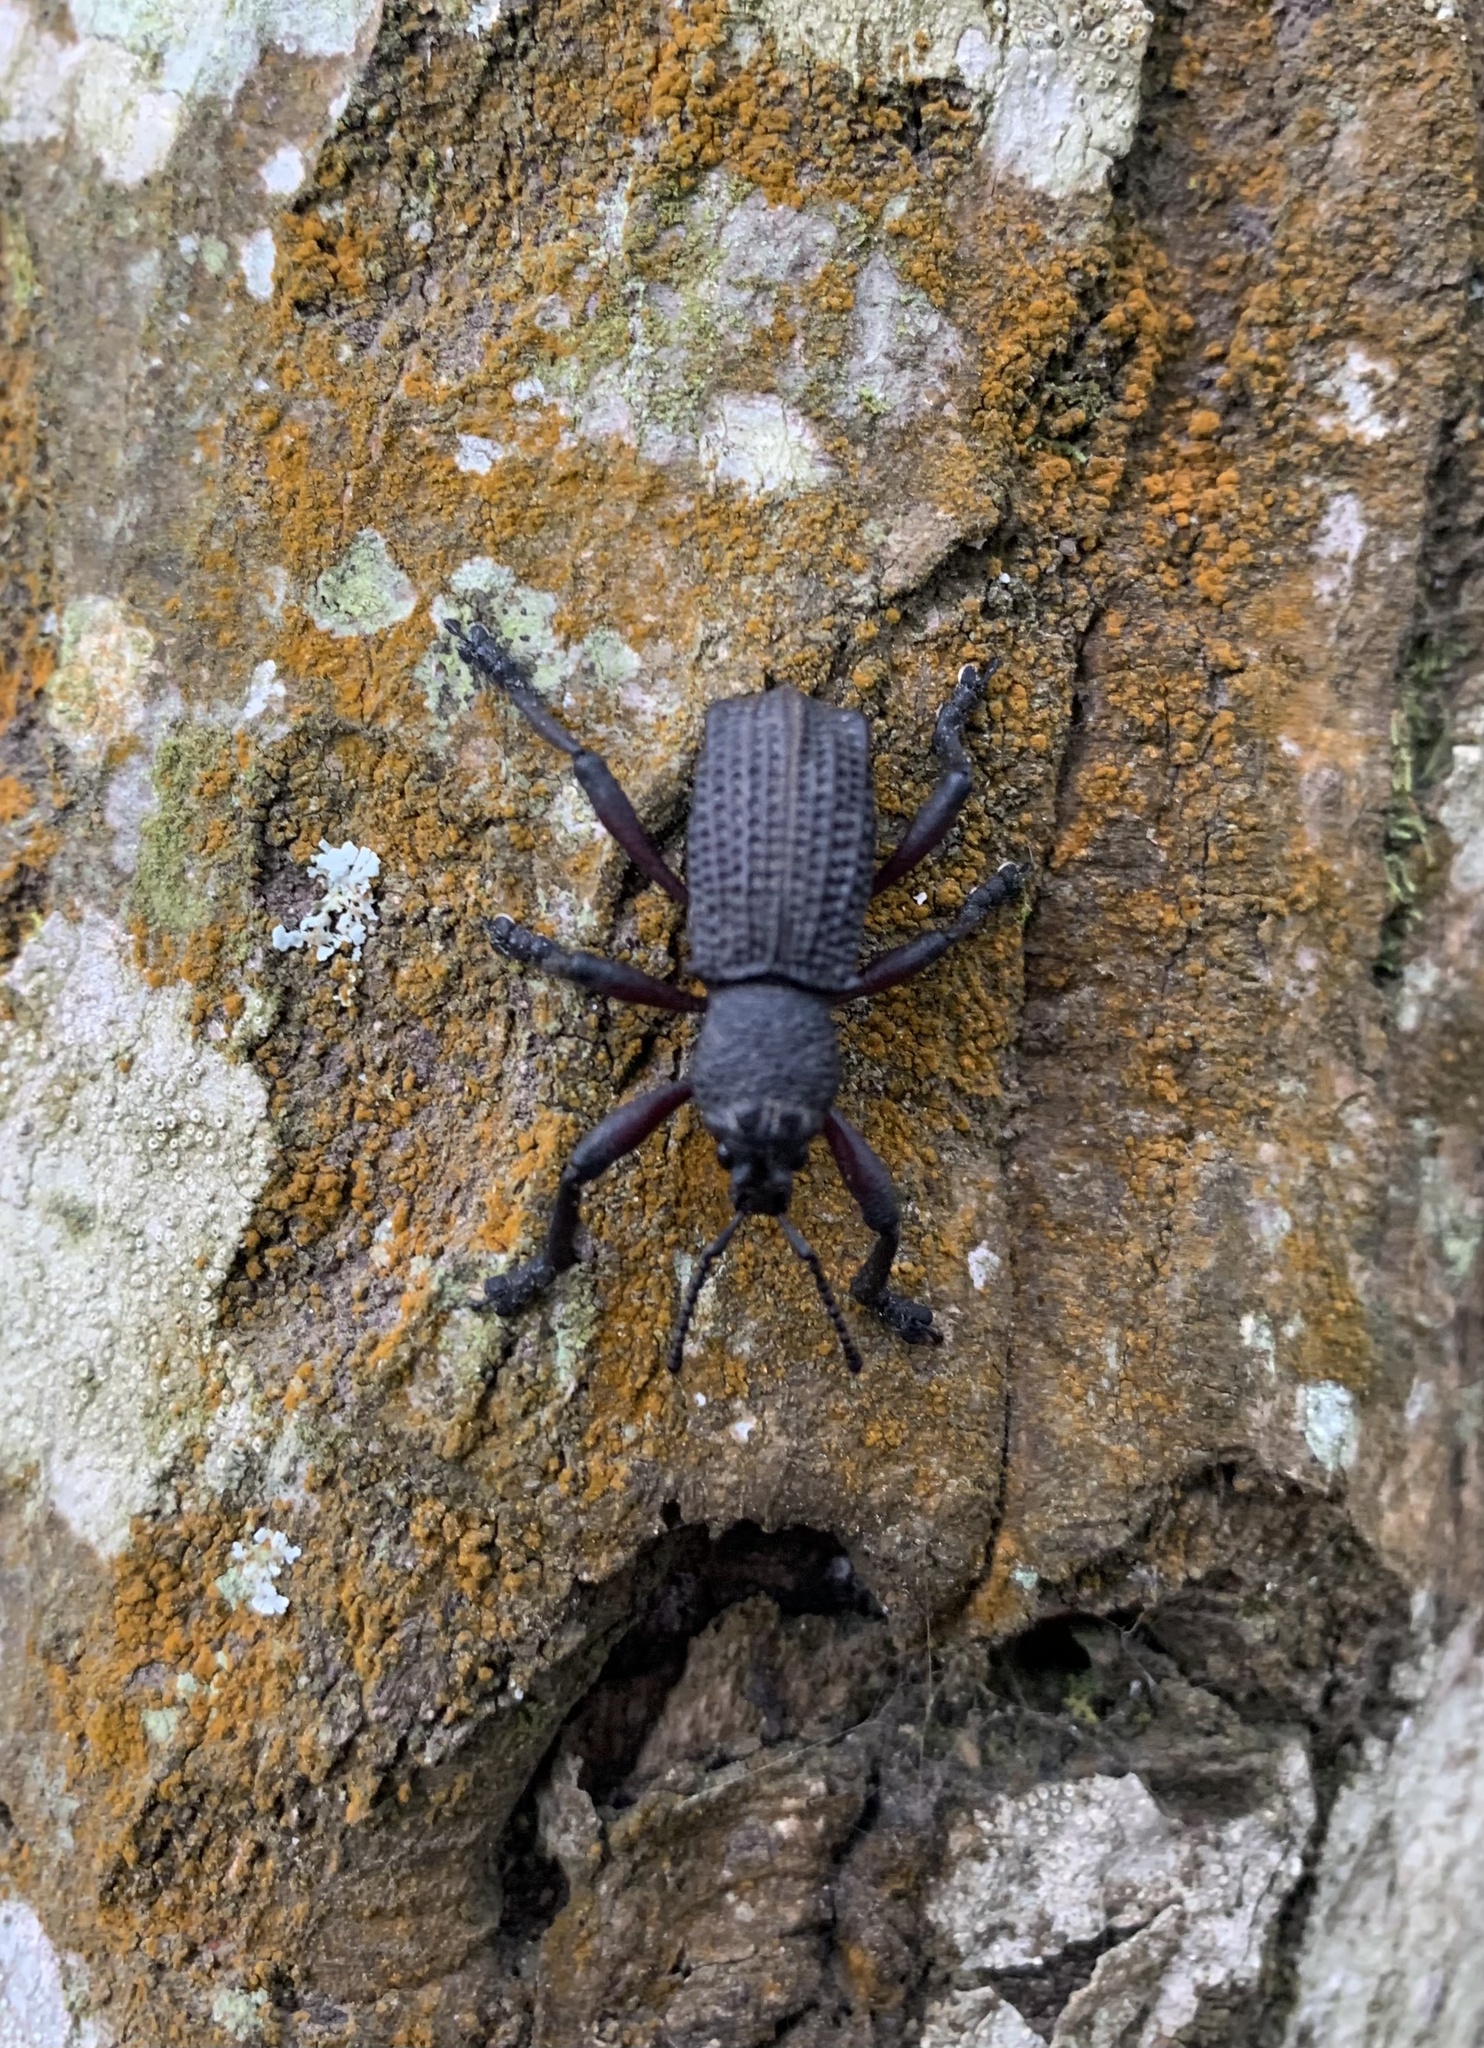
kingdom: Animalia
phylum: Arthropoda
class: Insecta
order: Coleoptera
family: Curculionidae
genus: Aegorhinus
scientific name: Aegorhinus
